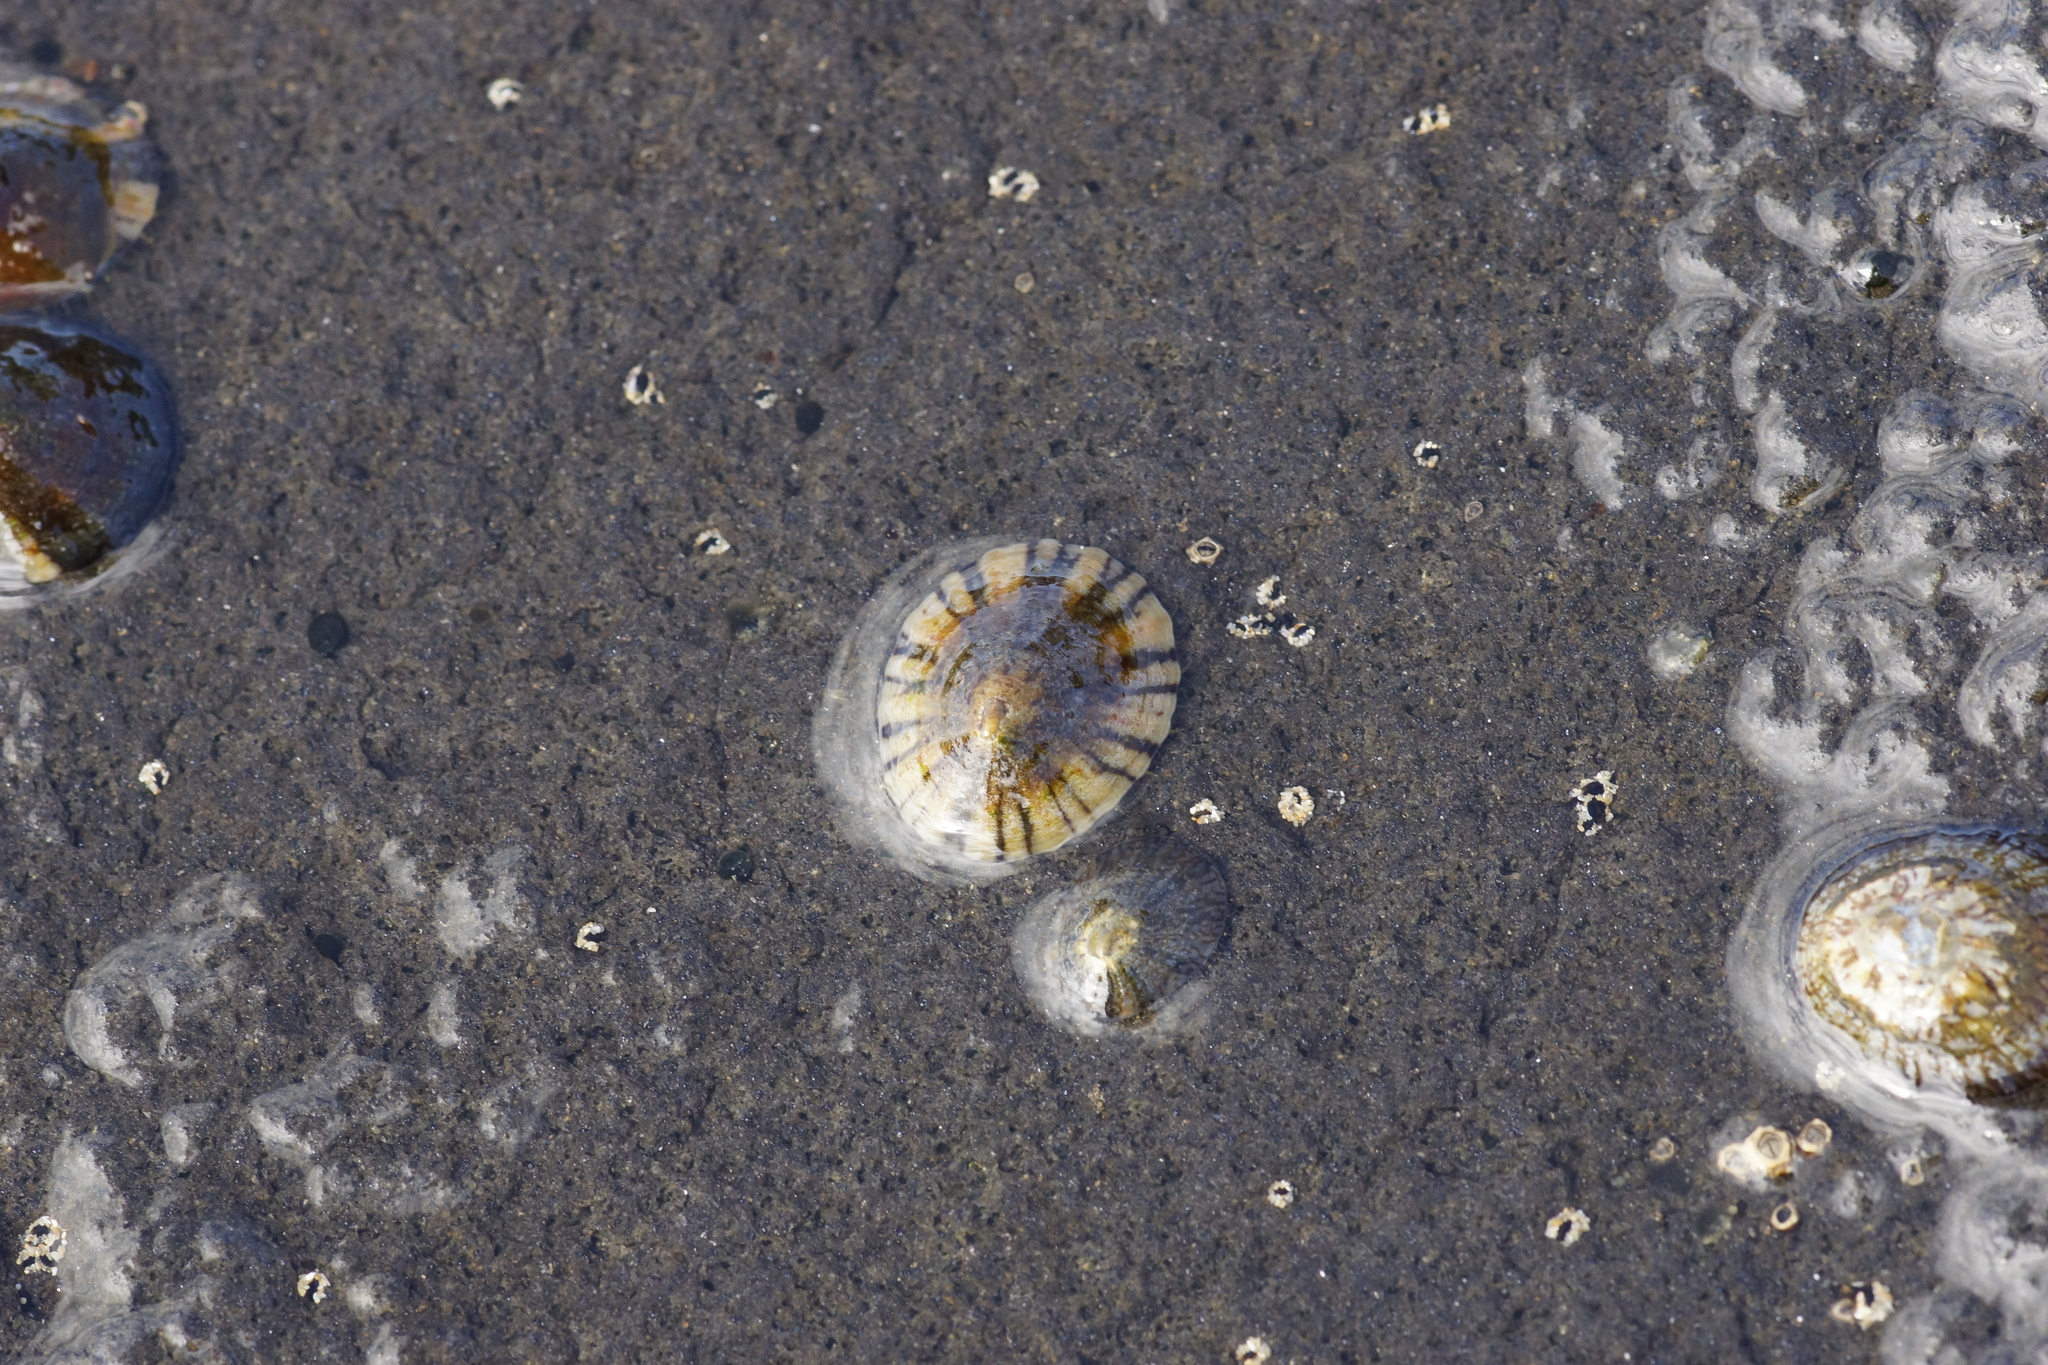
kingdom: Animalia
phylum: Mollusca
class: Gastropoda
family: Nacellidae
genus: Cellana
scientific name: Cellana tramoserica
